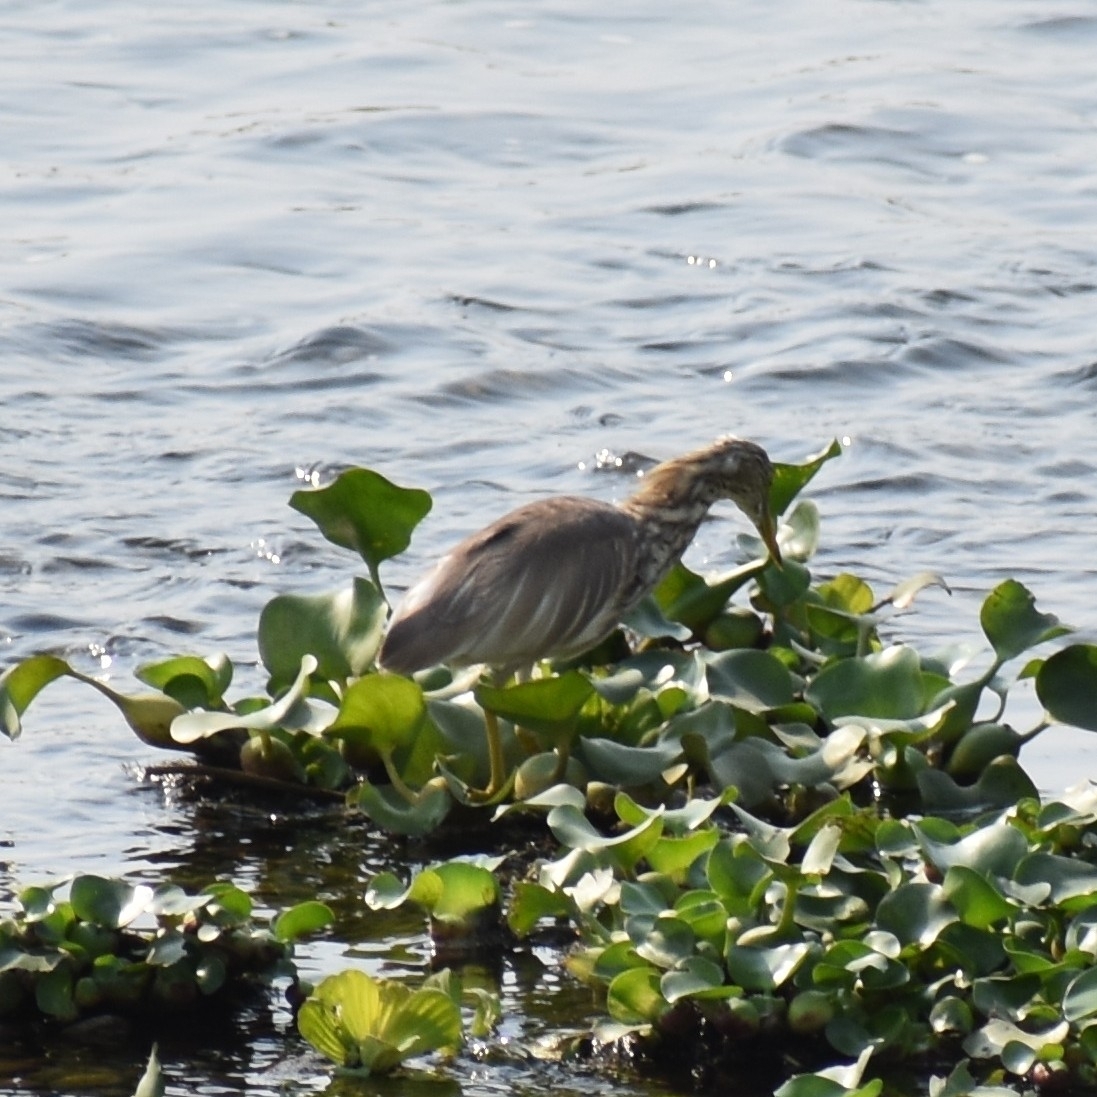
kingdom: Animalia
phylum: Chordata
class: Aves
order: Pelecaniformes
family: Ardeidae
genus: Ardeola
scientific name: Ardeola grayii
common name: Indian pond heron
